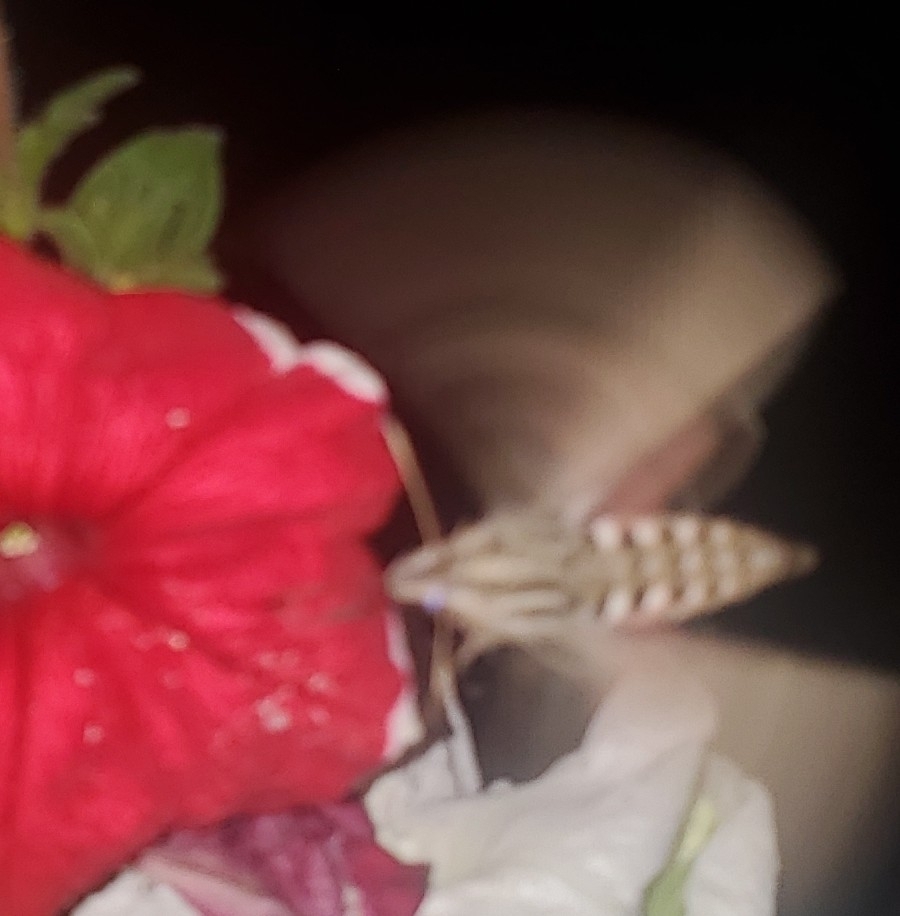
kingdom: Animalia
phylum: Arthropoda
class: Insecta
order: Lepidoptera
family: Sphingidae
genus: Hyles
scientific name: Hyles lineata
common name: White-lined sphinx
